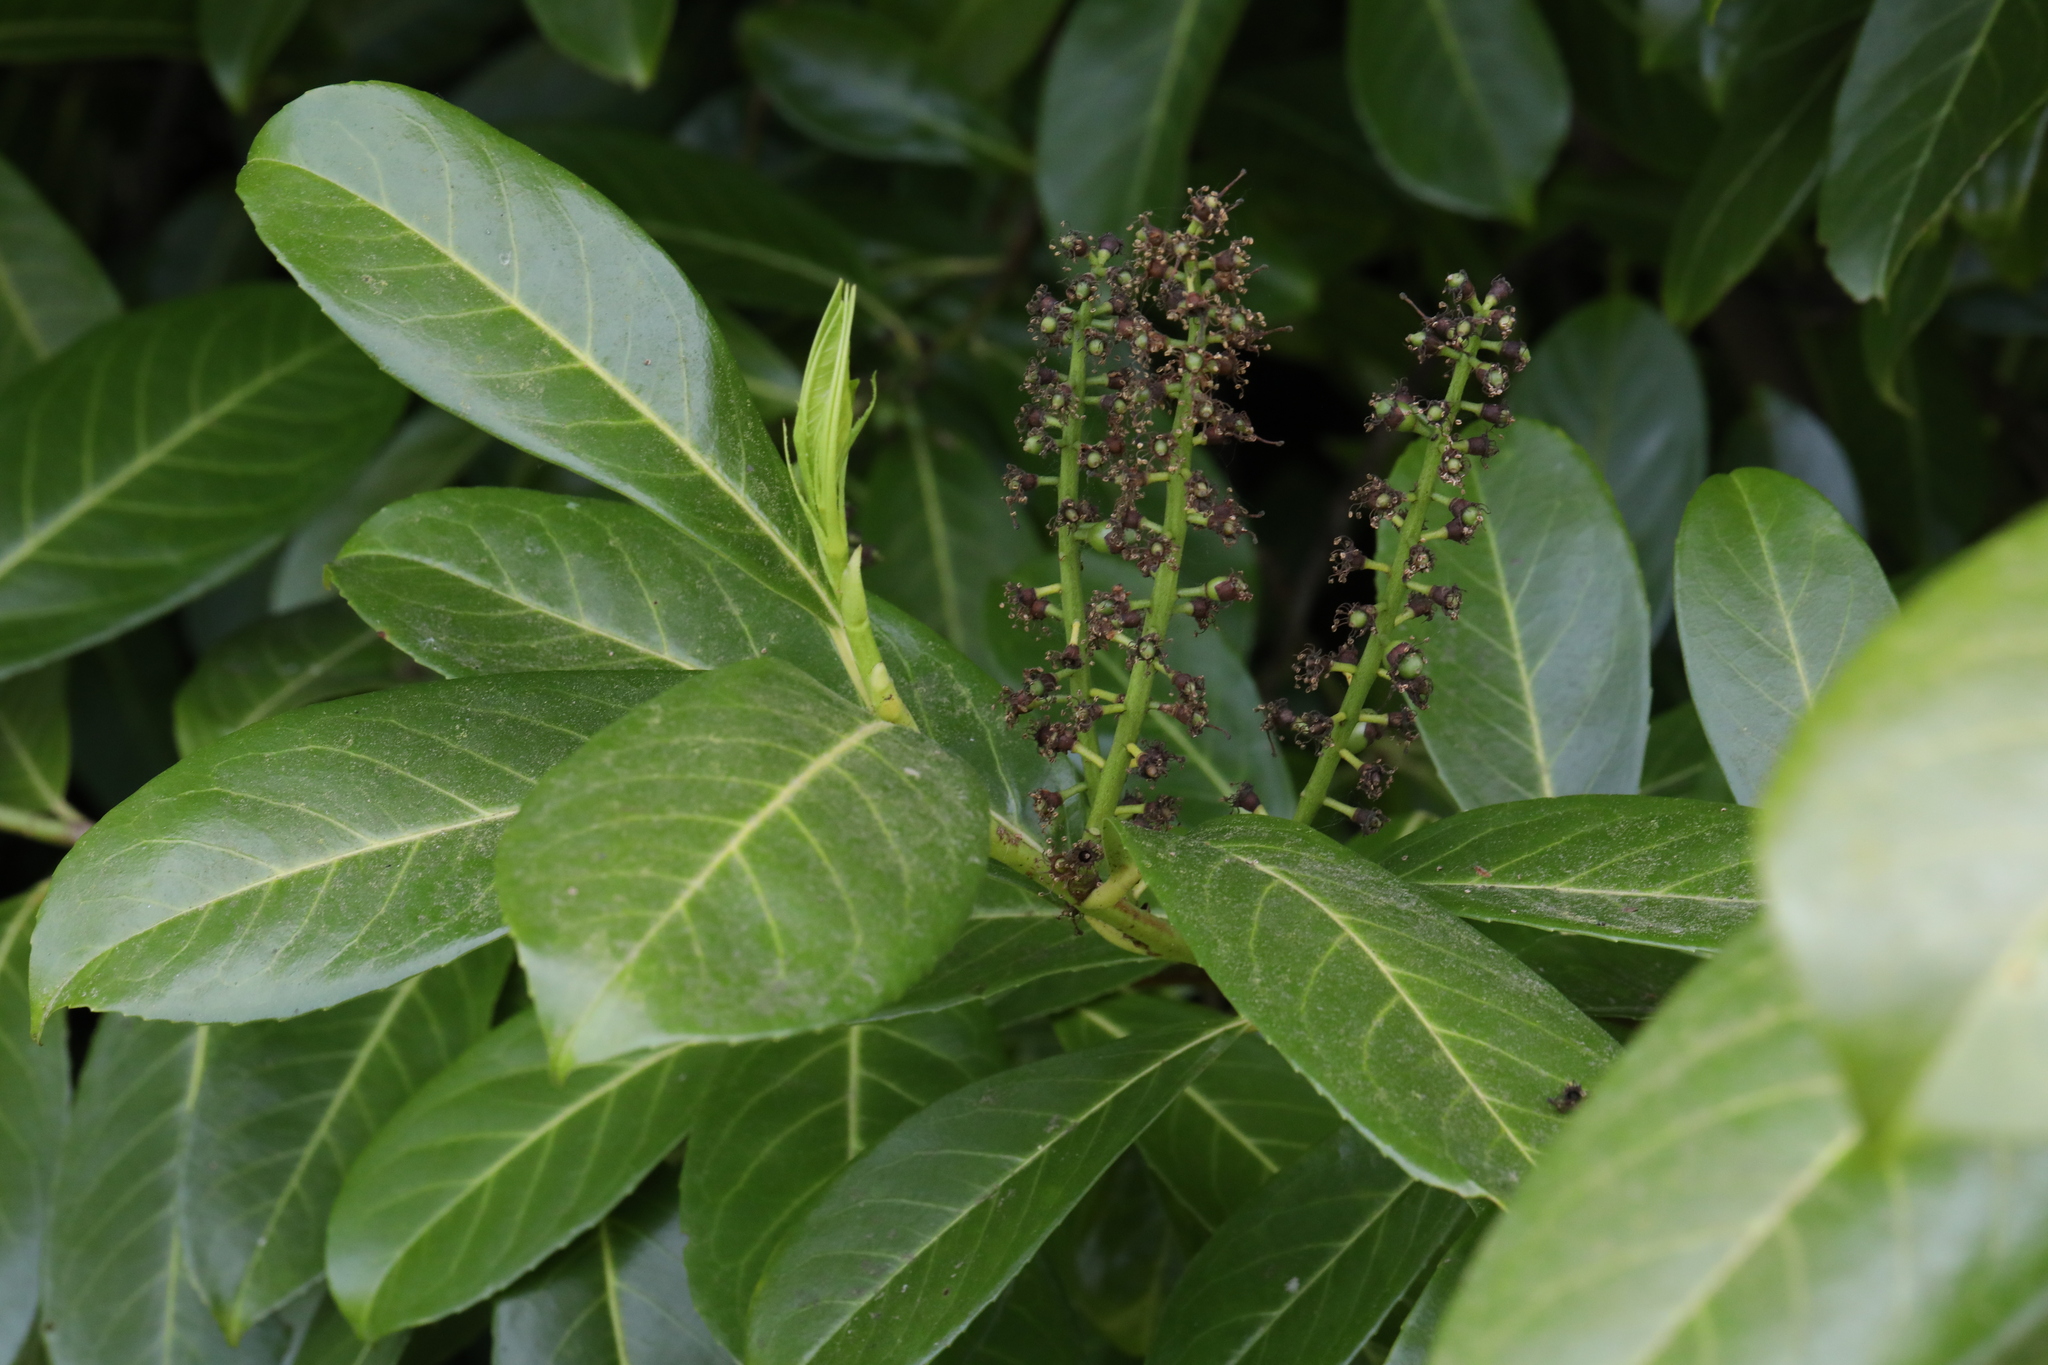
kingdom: Plantae
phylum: Tracheophyta
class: Magnoliopsida
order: Rosales
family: Rosaceae
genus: Prunus
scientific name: Prunus laurocerasus
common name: Cherry laurel
